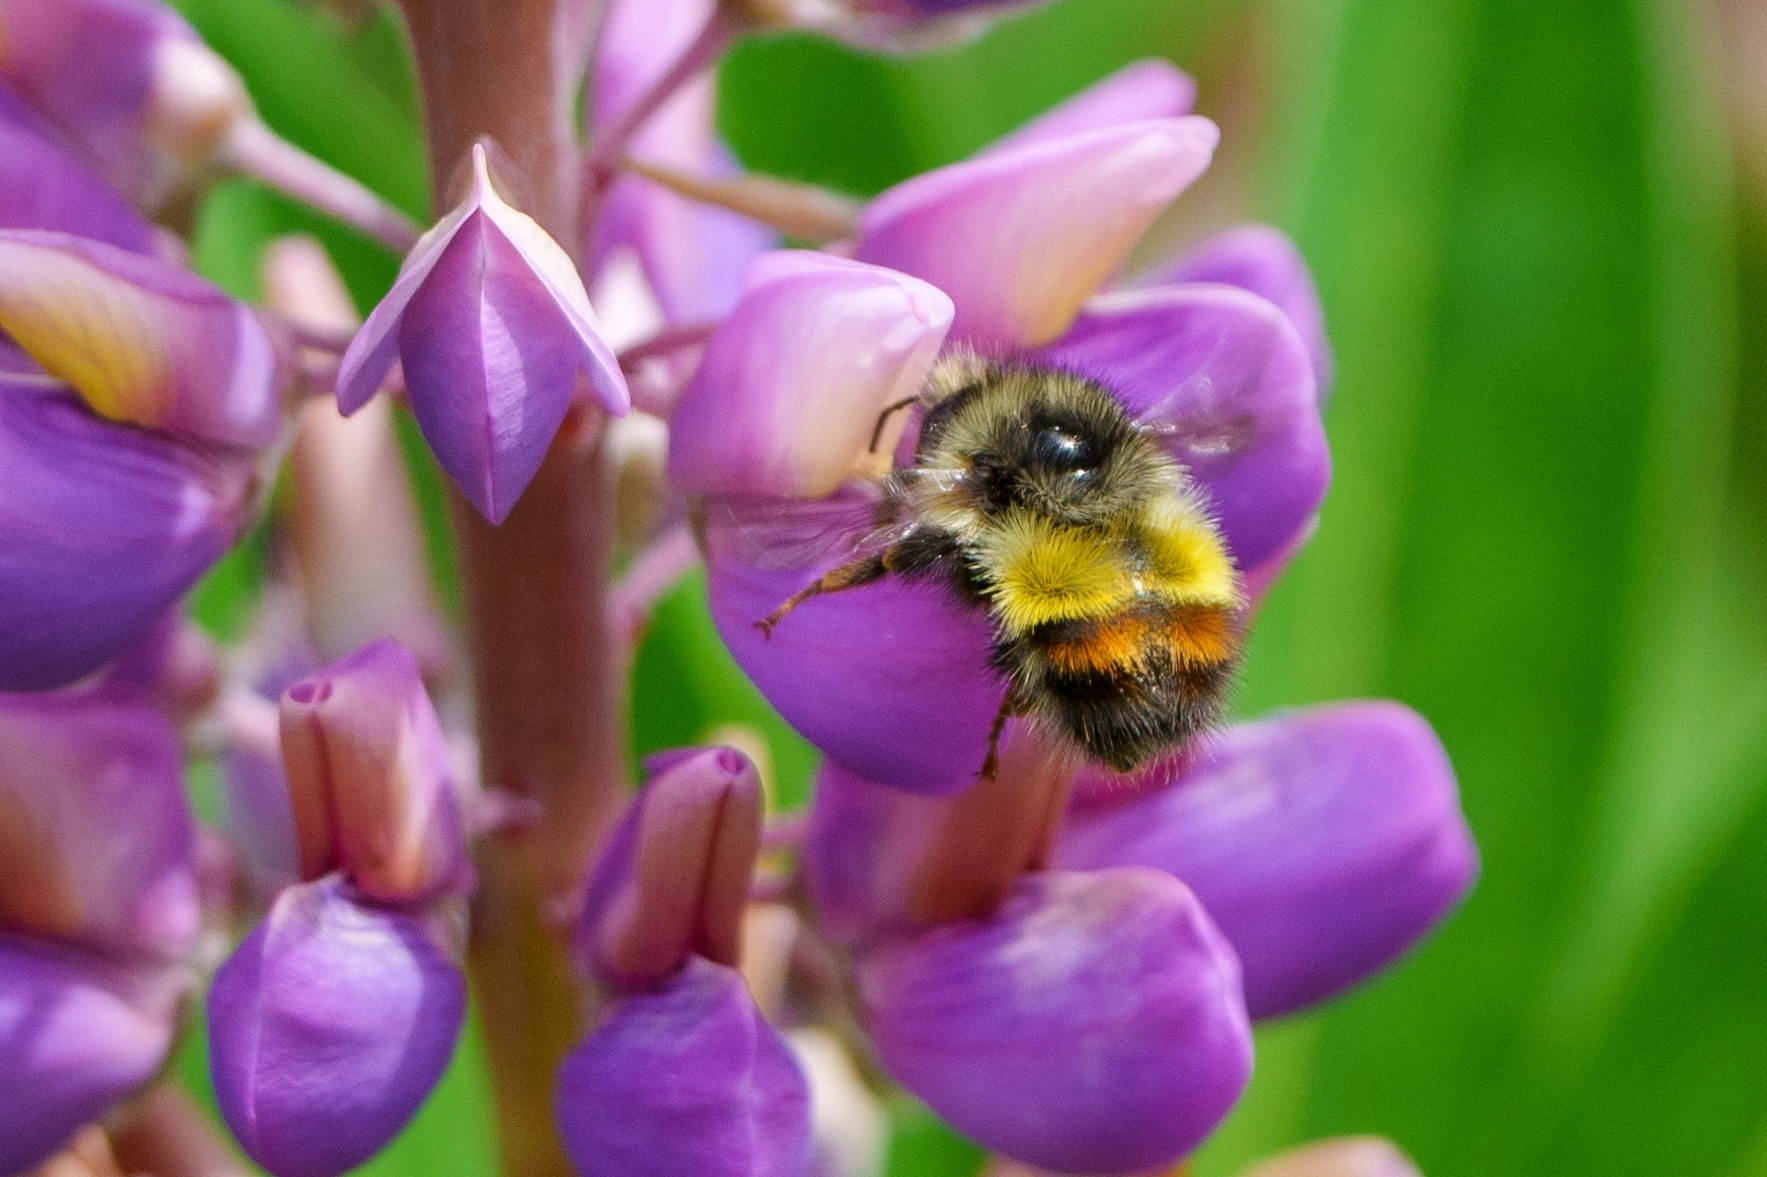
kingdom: Animalia
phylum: Arthropoda
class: Insecta
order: Hymenoptera
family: Apidae
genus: Bombus
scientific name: Bombus flavifrons
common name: Yellow head bumble bee
